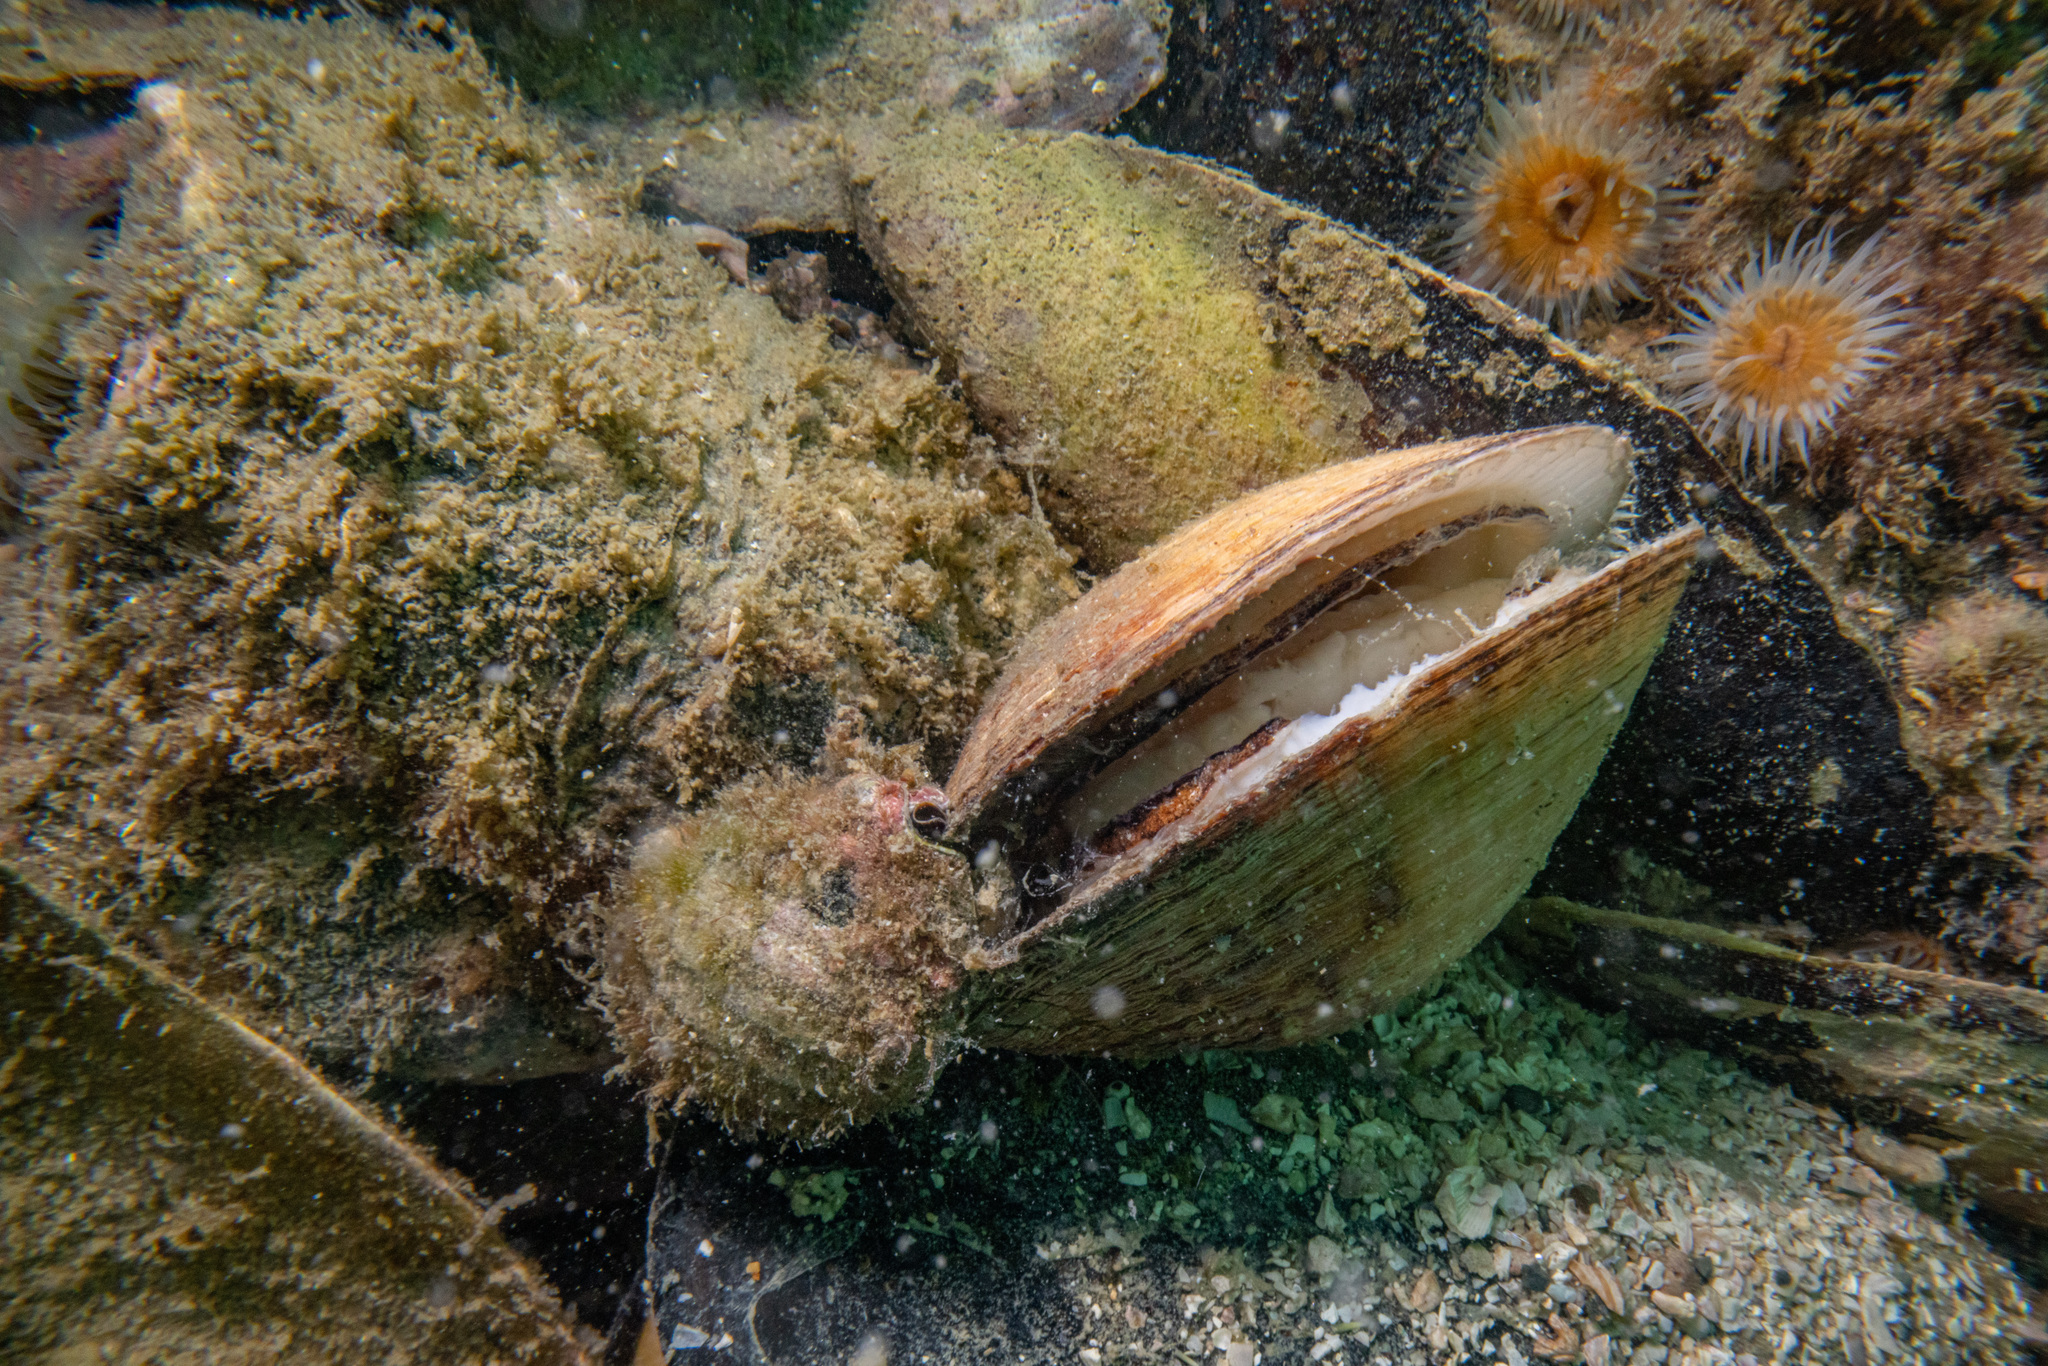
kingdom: Animalia
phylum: Mollusca
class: Gastropoda
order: Neogastropoda
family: Muricidae
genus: Dicathais
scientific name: Dicathais orbita
